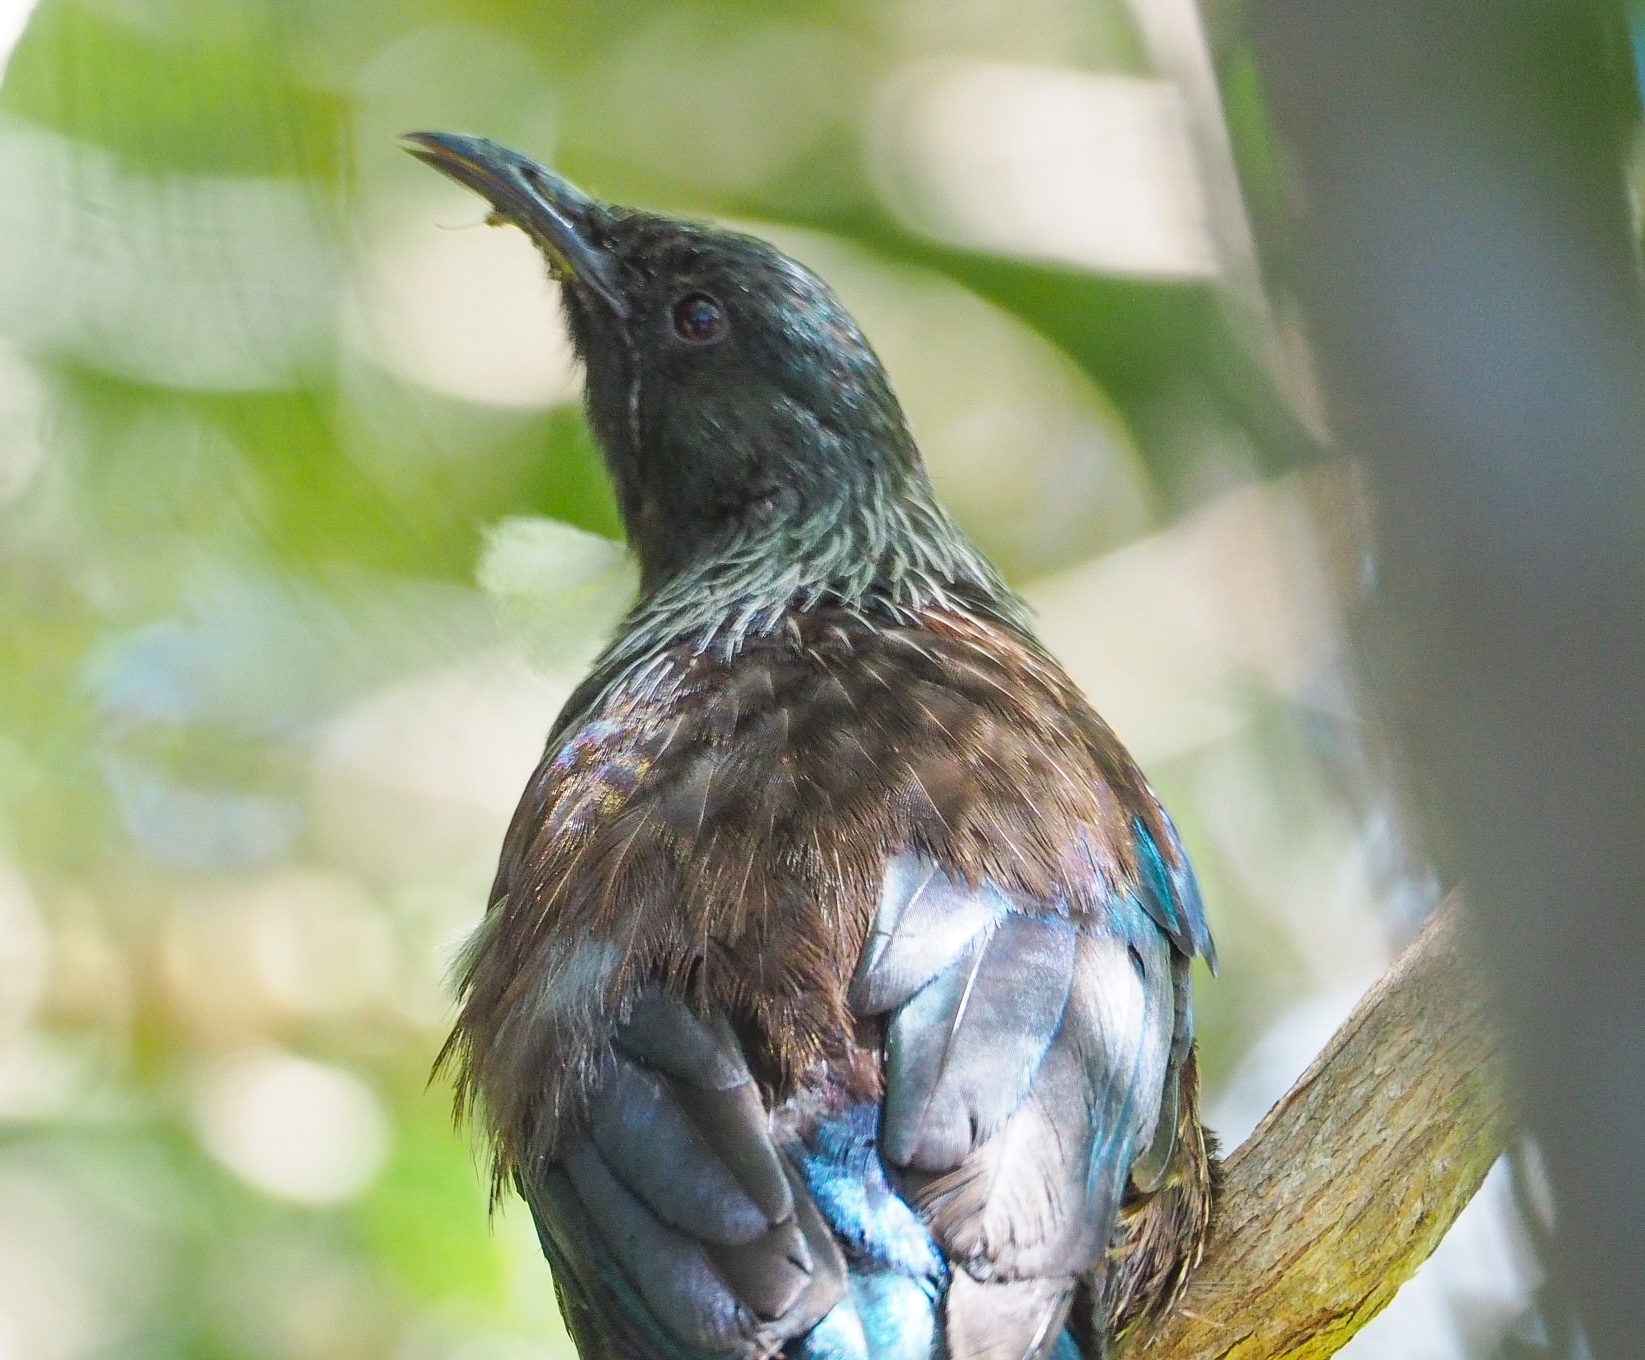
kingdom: Animalia
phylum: Chordata
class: Aves
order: Passeriformes
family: Meliphagidae
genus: Prosthemadera
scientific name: Prosthemadera novaeseelandiae
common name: Tui
